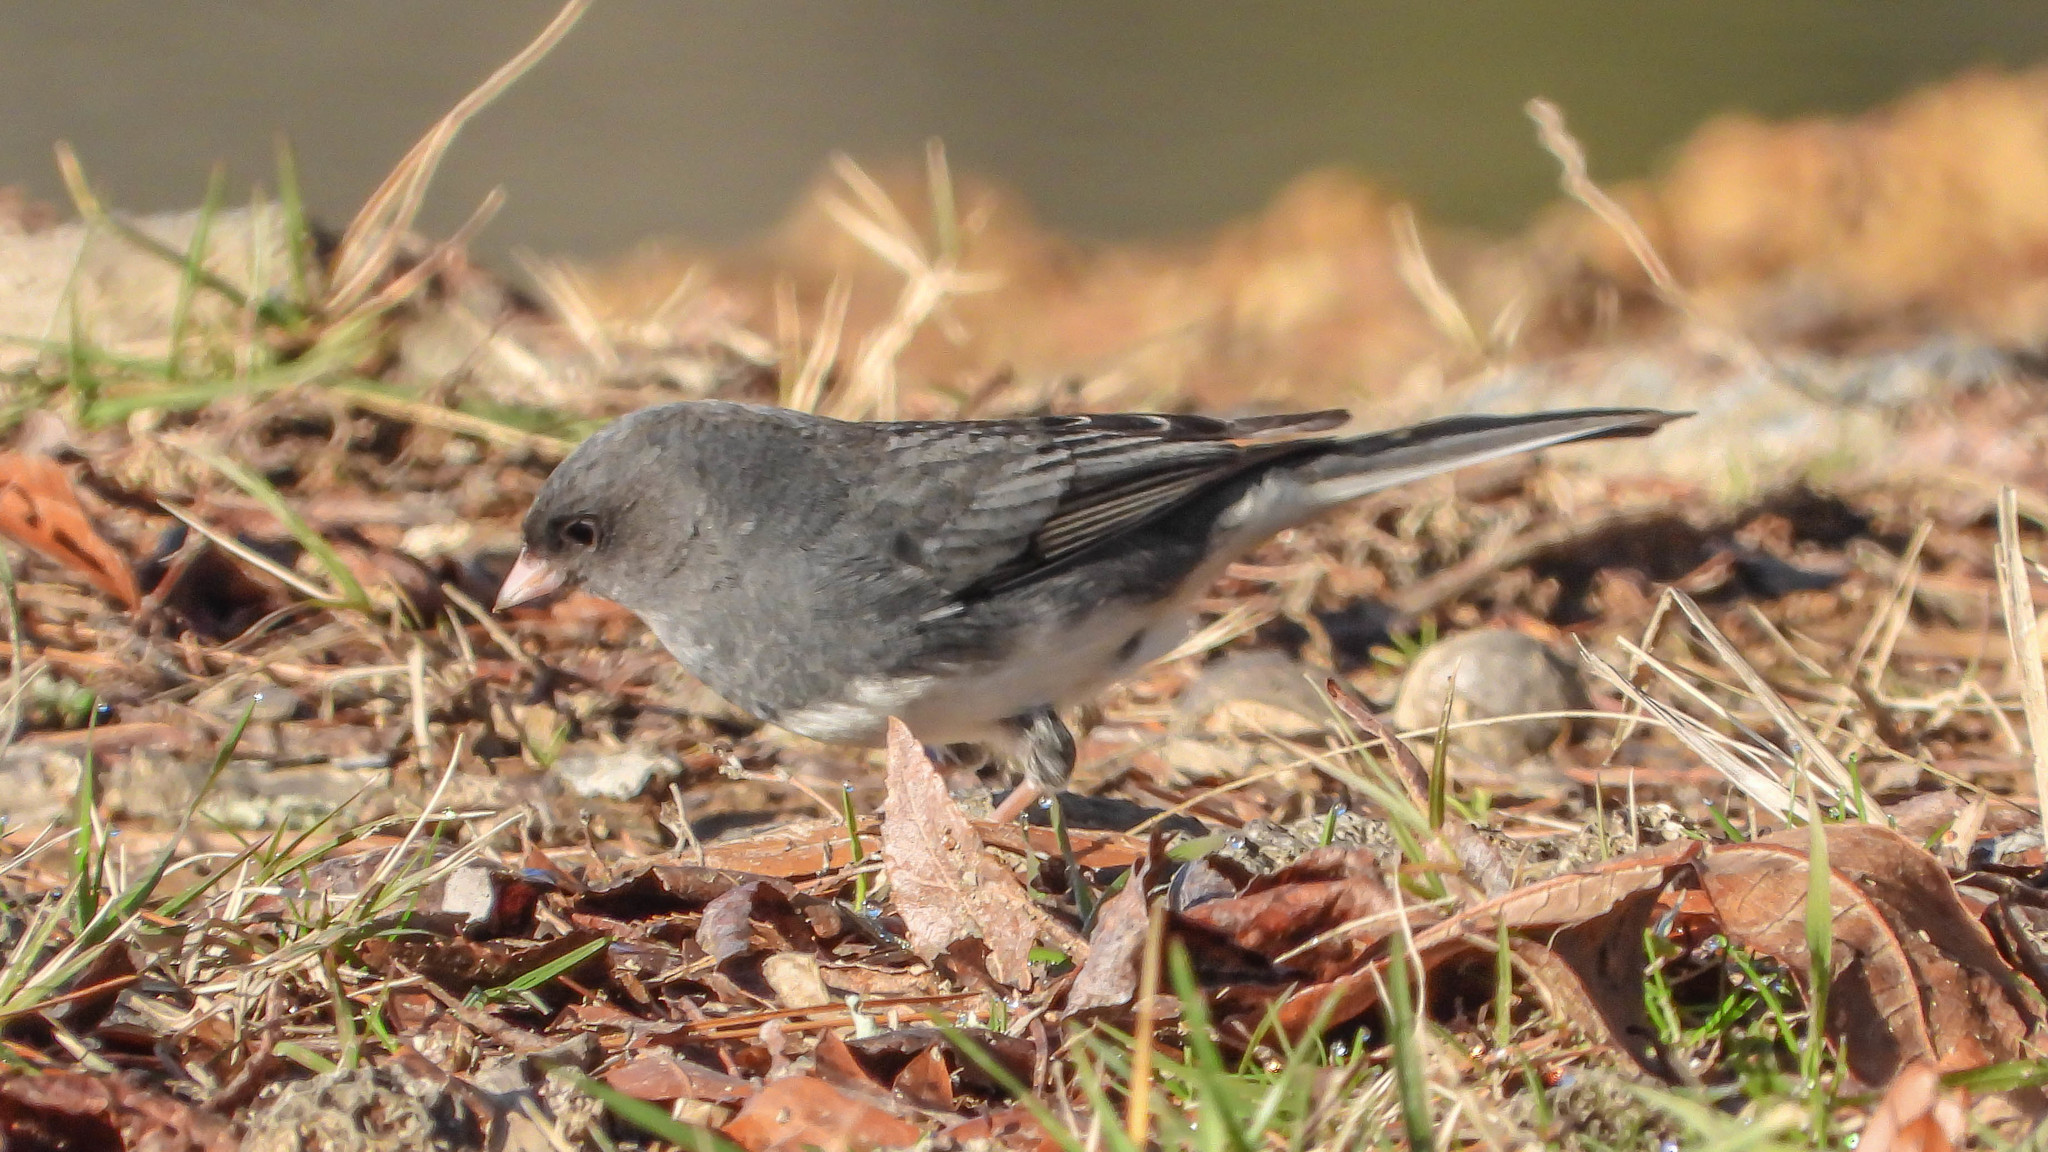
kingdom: Animalia
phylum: Chordata
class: Aves
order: Passeriformes
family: Passerellidae
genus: Junco
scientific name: Junco hyemalis
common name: Dark-eyed junco
